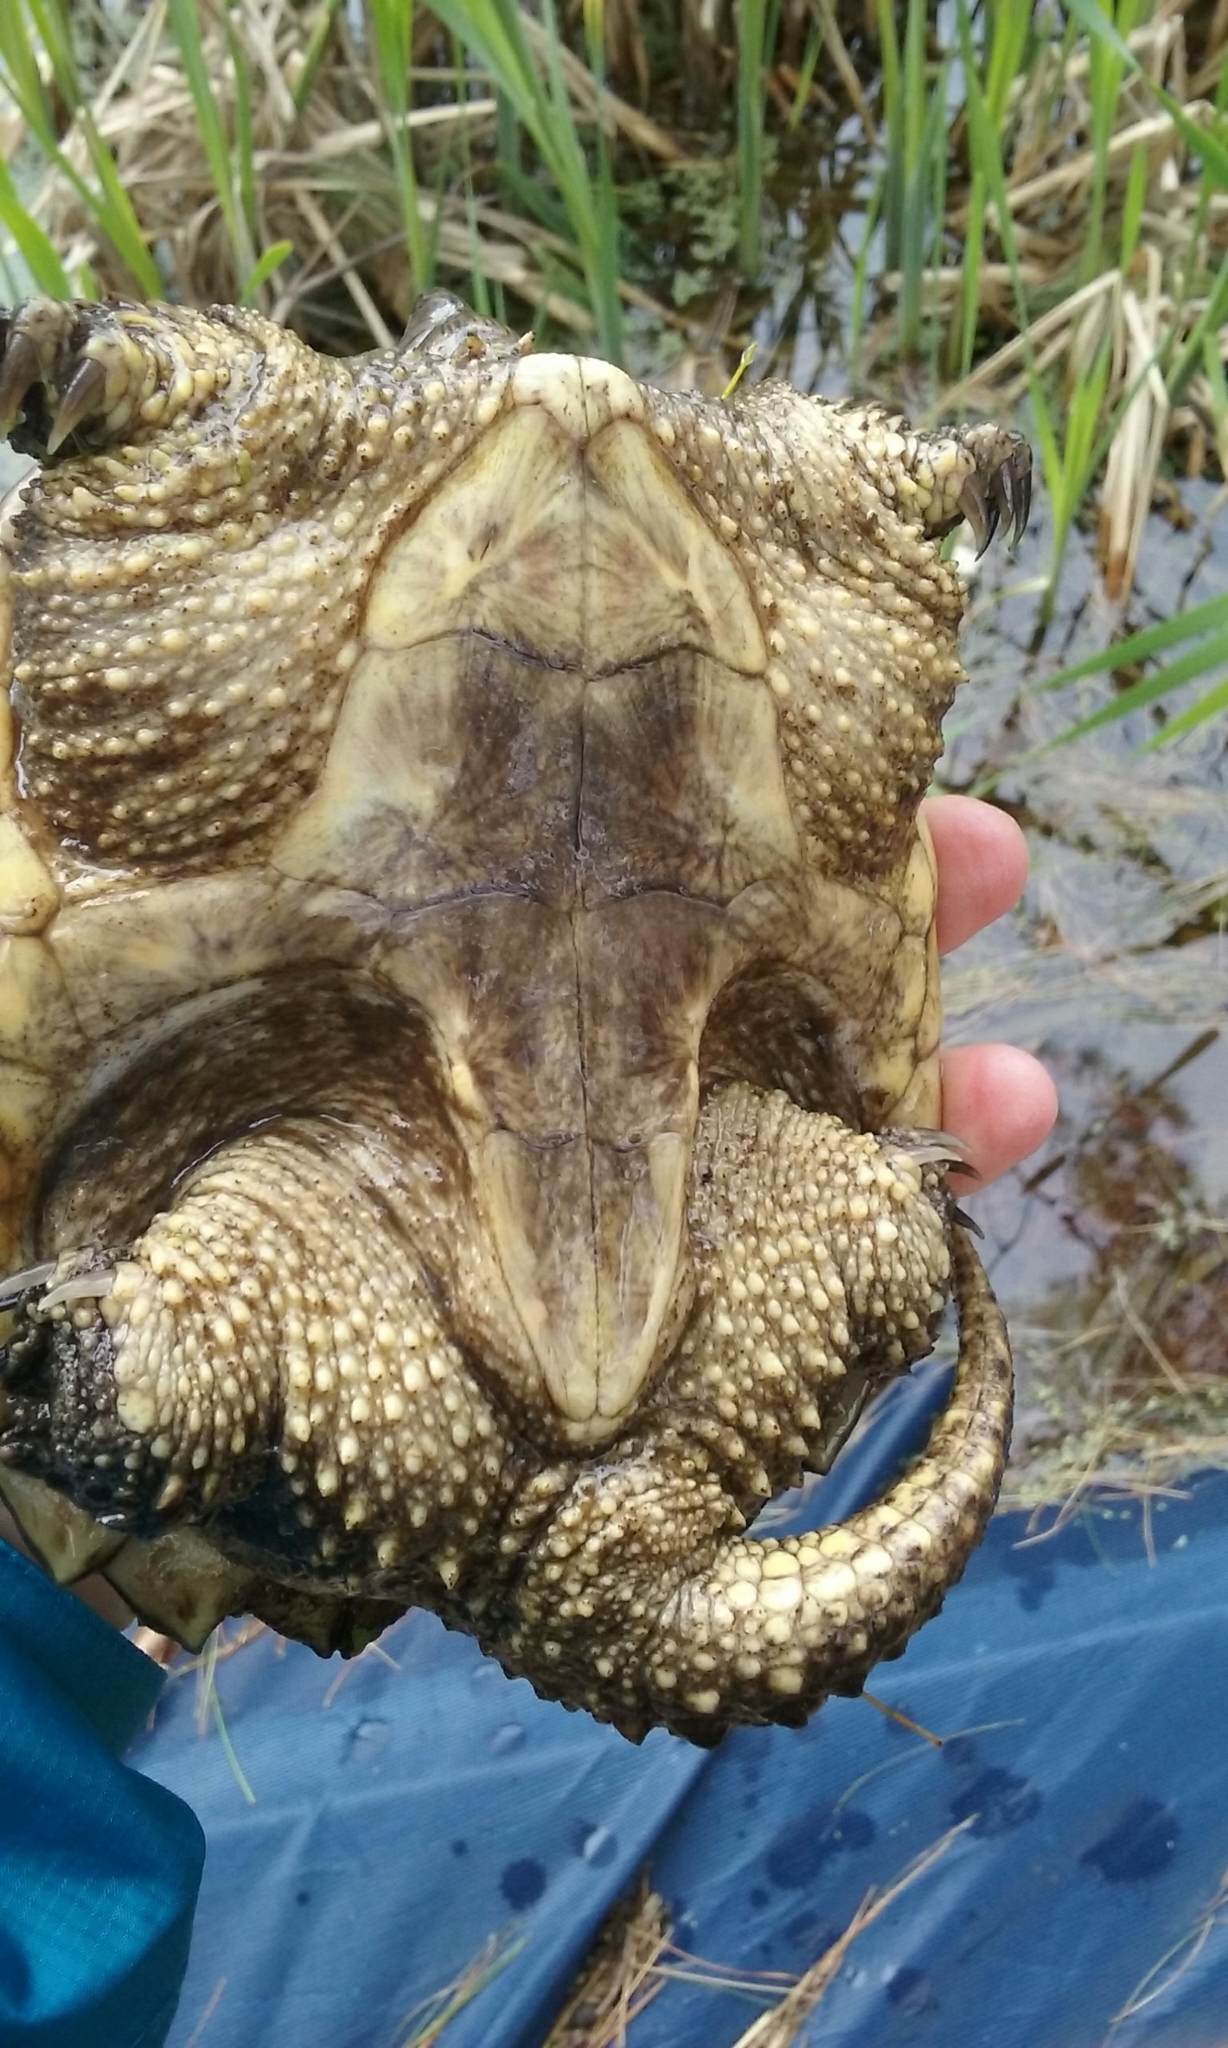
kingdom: Animalia
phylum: Chordata
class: Testudines
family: Chelydridae
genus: Chelydra
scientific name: Chelydra serpentina
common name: Common snapping turtle
